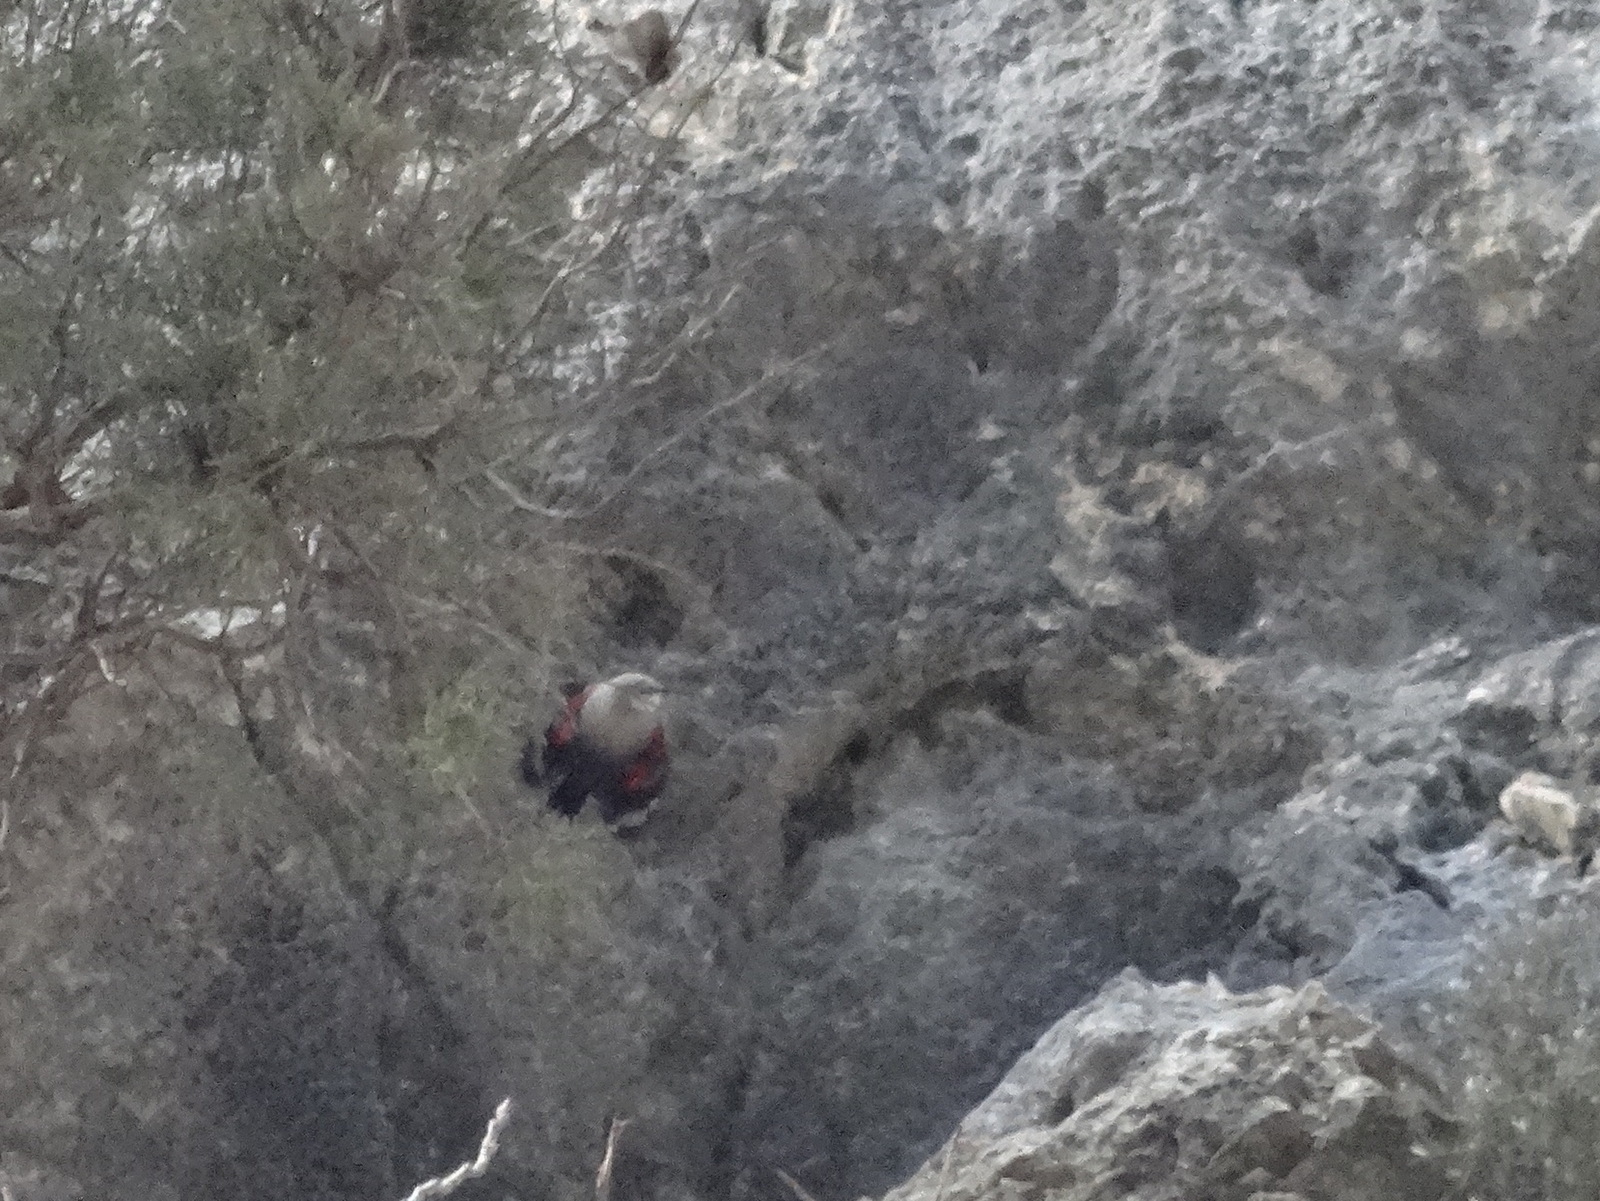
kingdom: Animalia
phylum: Chordata
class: Aves
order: Passeriformes
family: Tichodromidae
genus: Tichodroma
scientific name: Tichodroma muraria
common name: Wallcreeper
